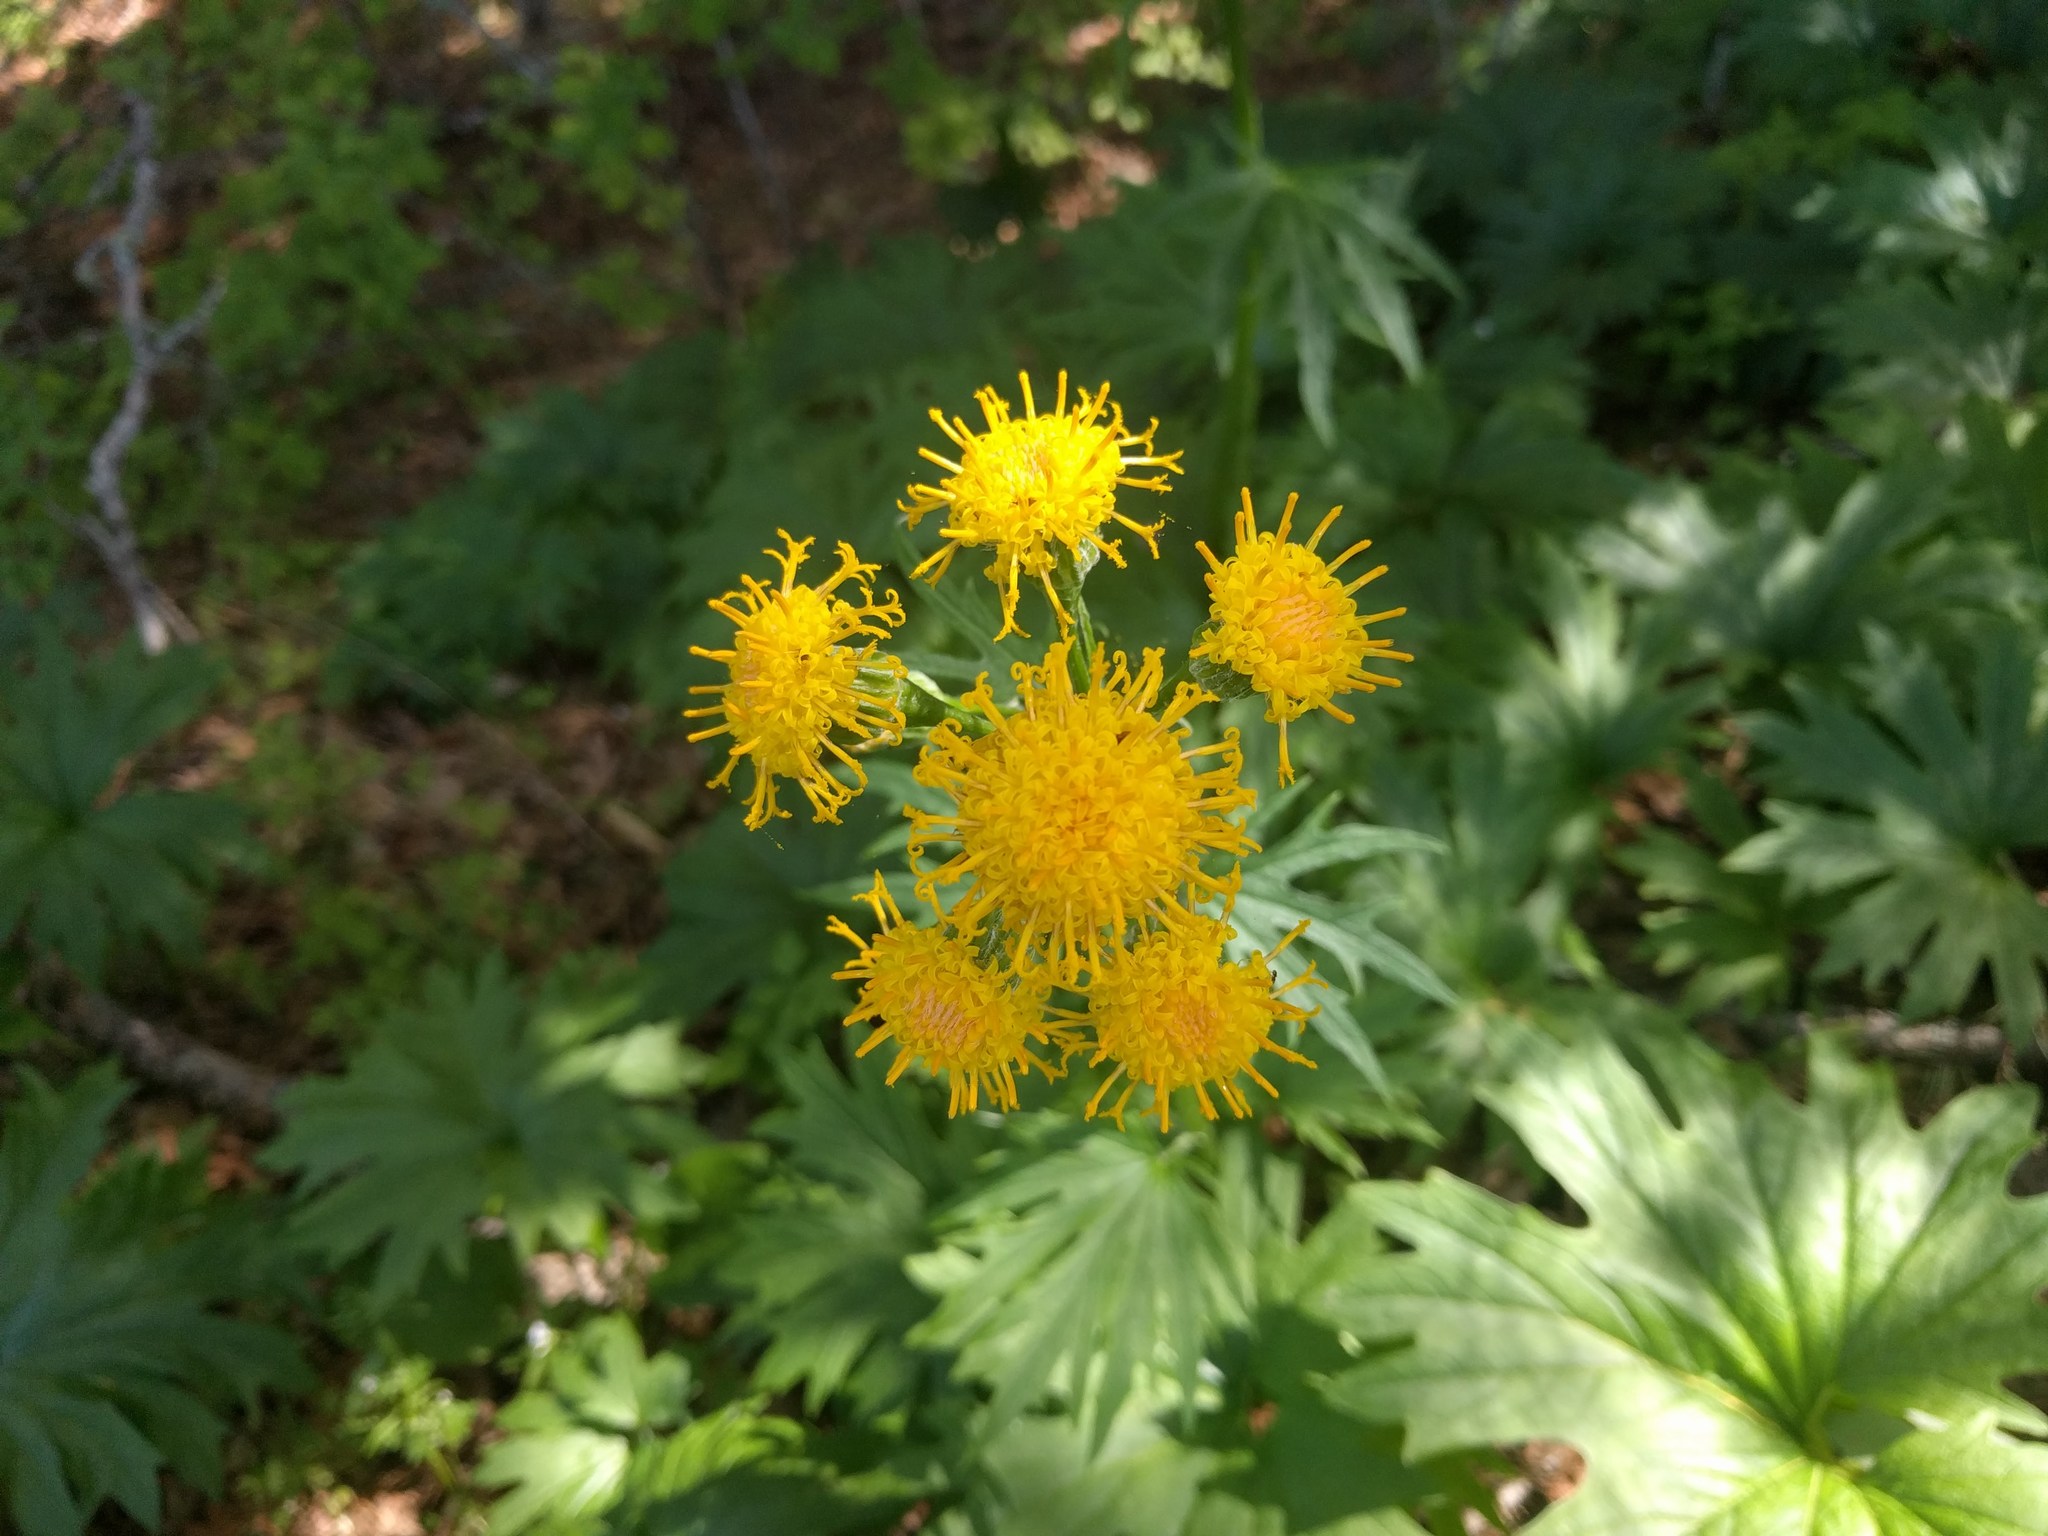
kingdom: Plantae
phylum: Tracheophyta
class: Magnoliopsida
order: Asterales
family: Asteraceae
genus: Cacaliopsis
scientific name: Cacaliopsis nardosmia
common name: Silvercrown
